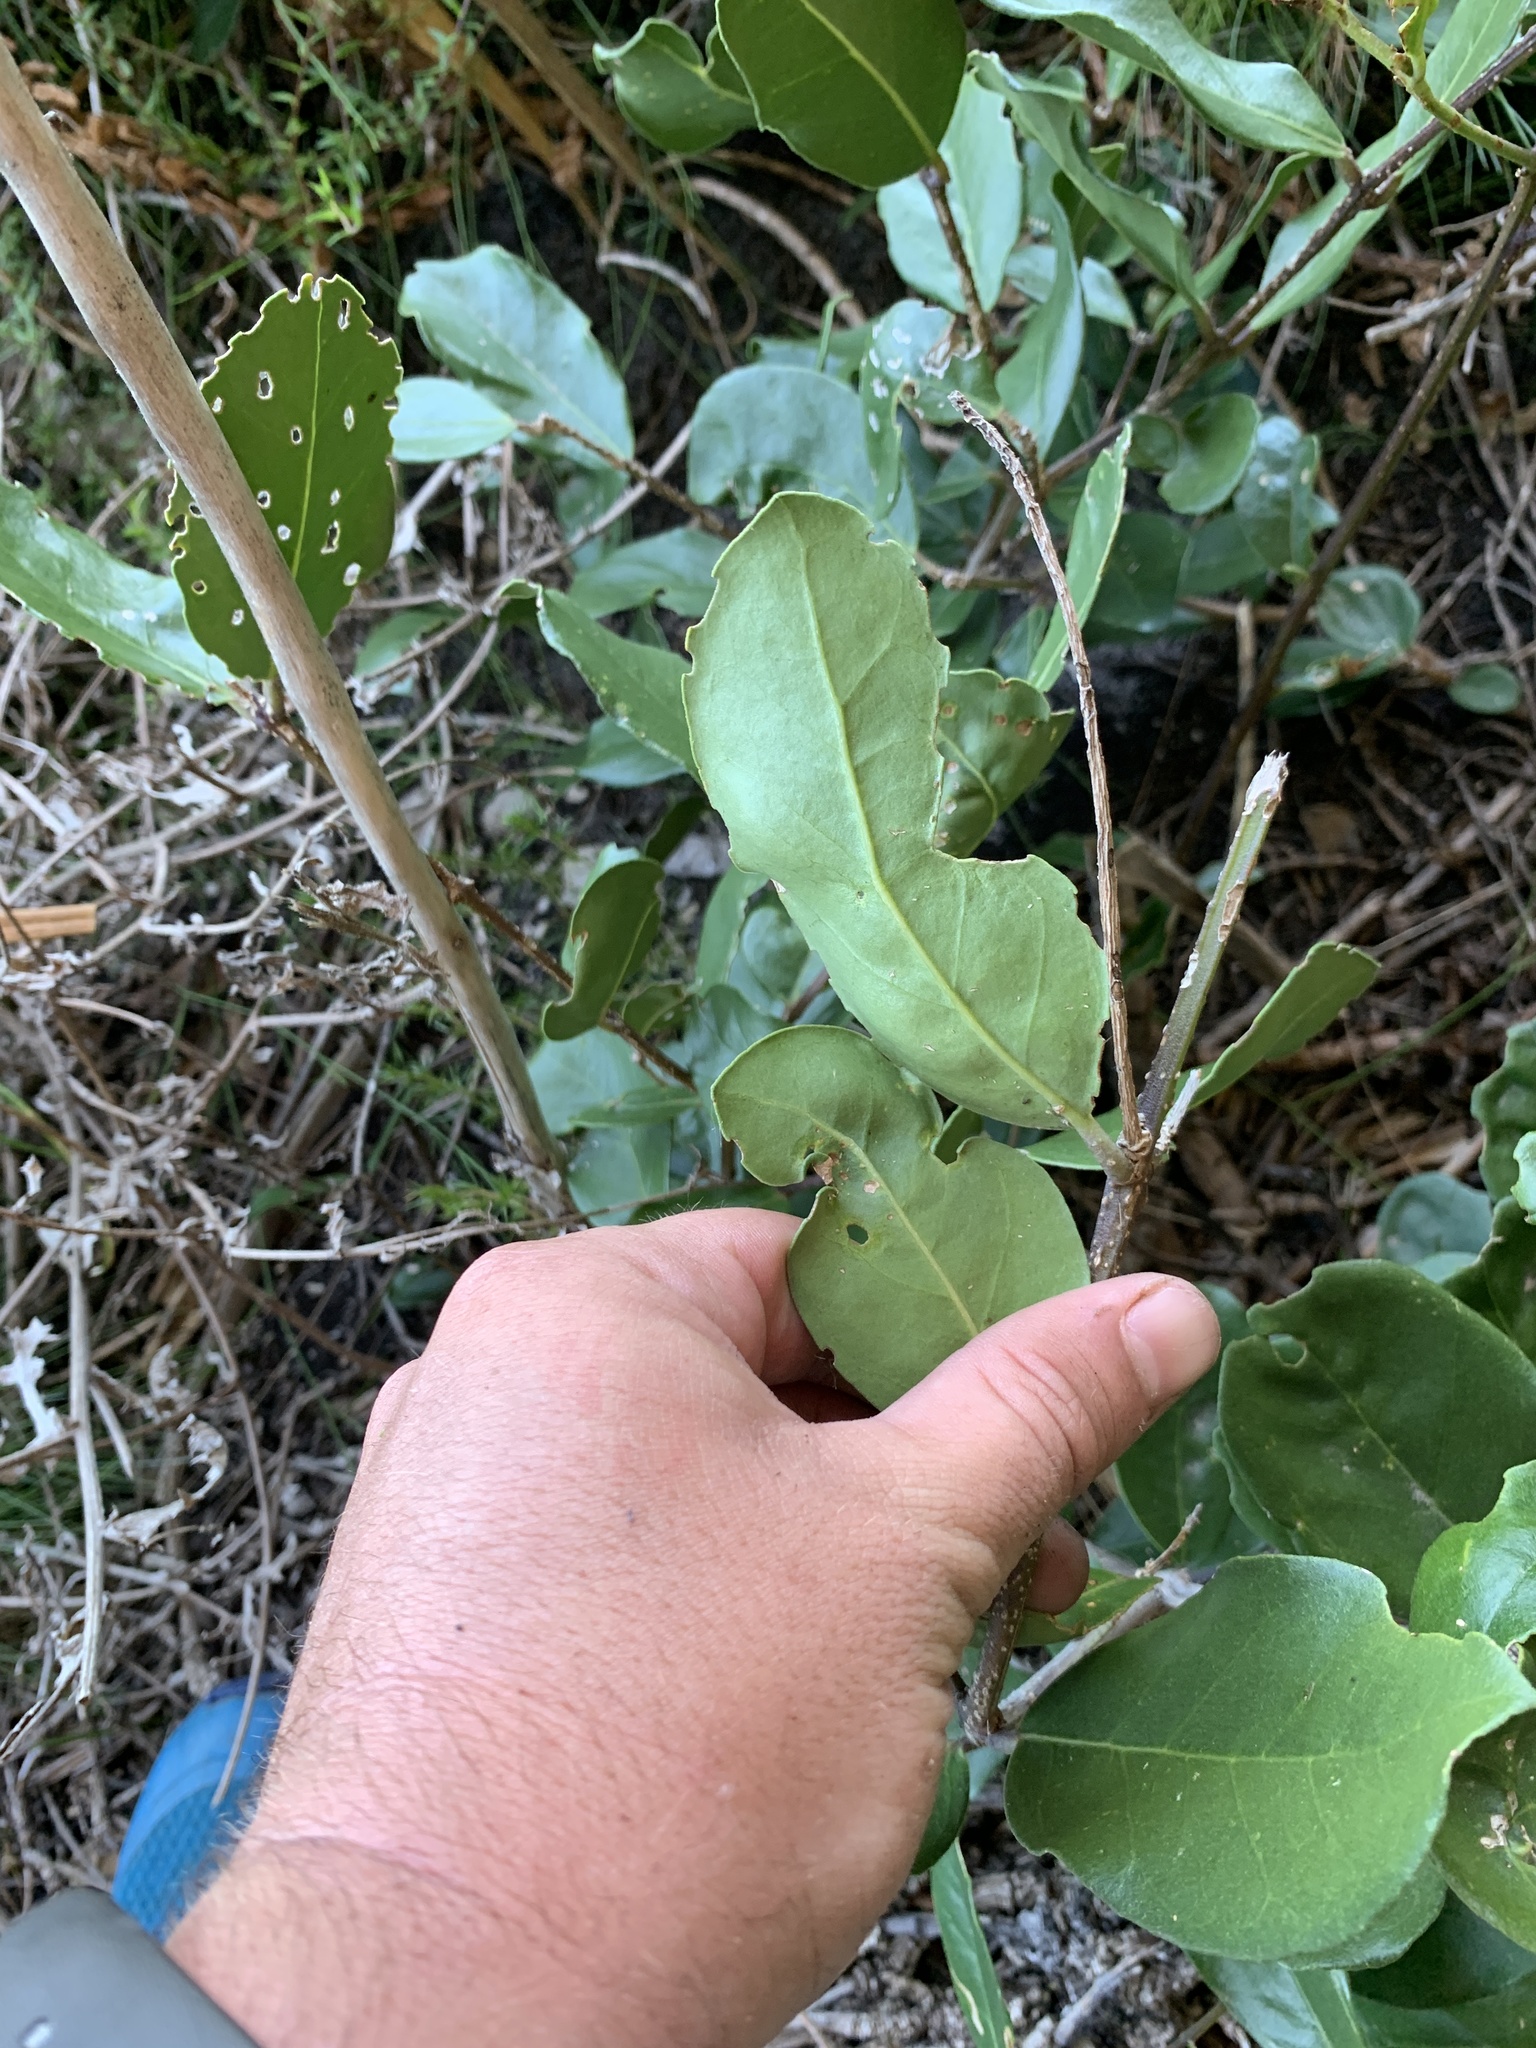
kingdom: Plantae
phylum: Tracheophyta
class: Magnoliopsida
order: Lamiales
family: Oleaceae
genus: Olea
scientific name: Olea capensis
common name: Black ironwood
